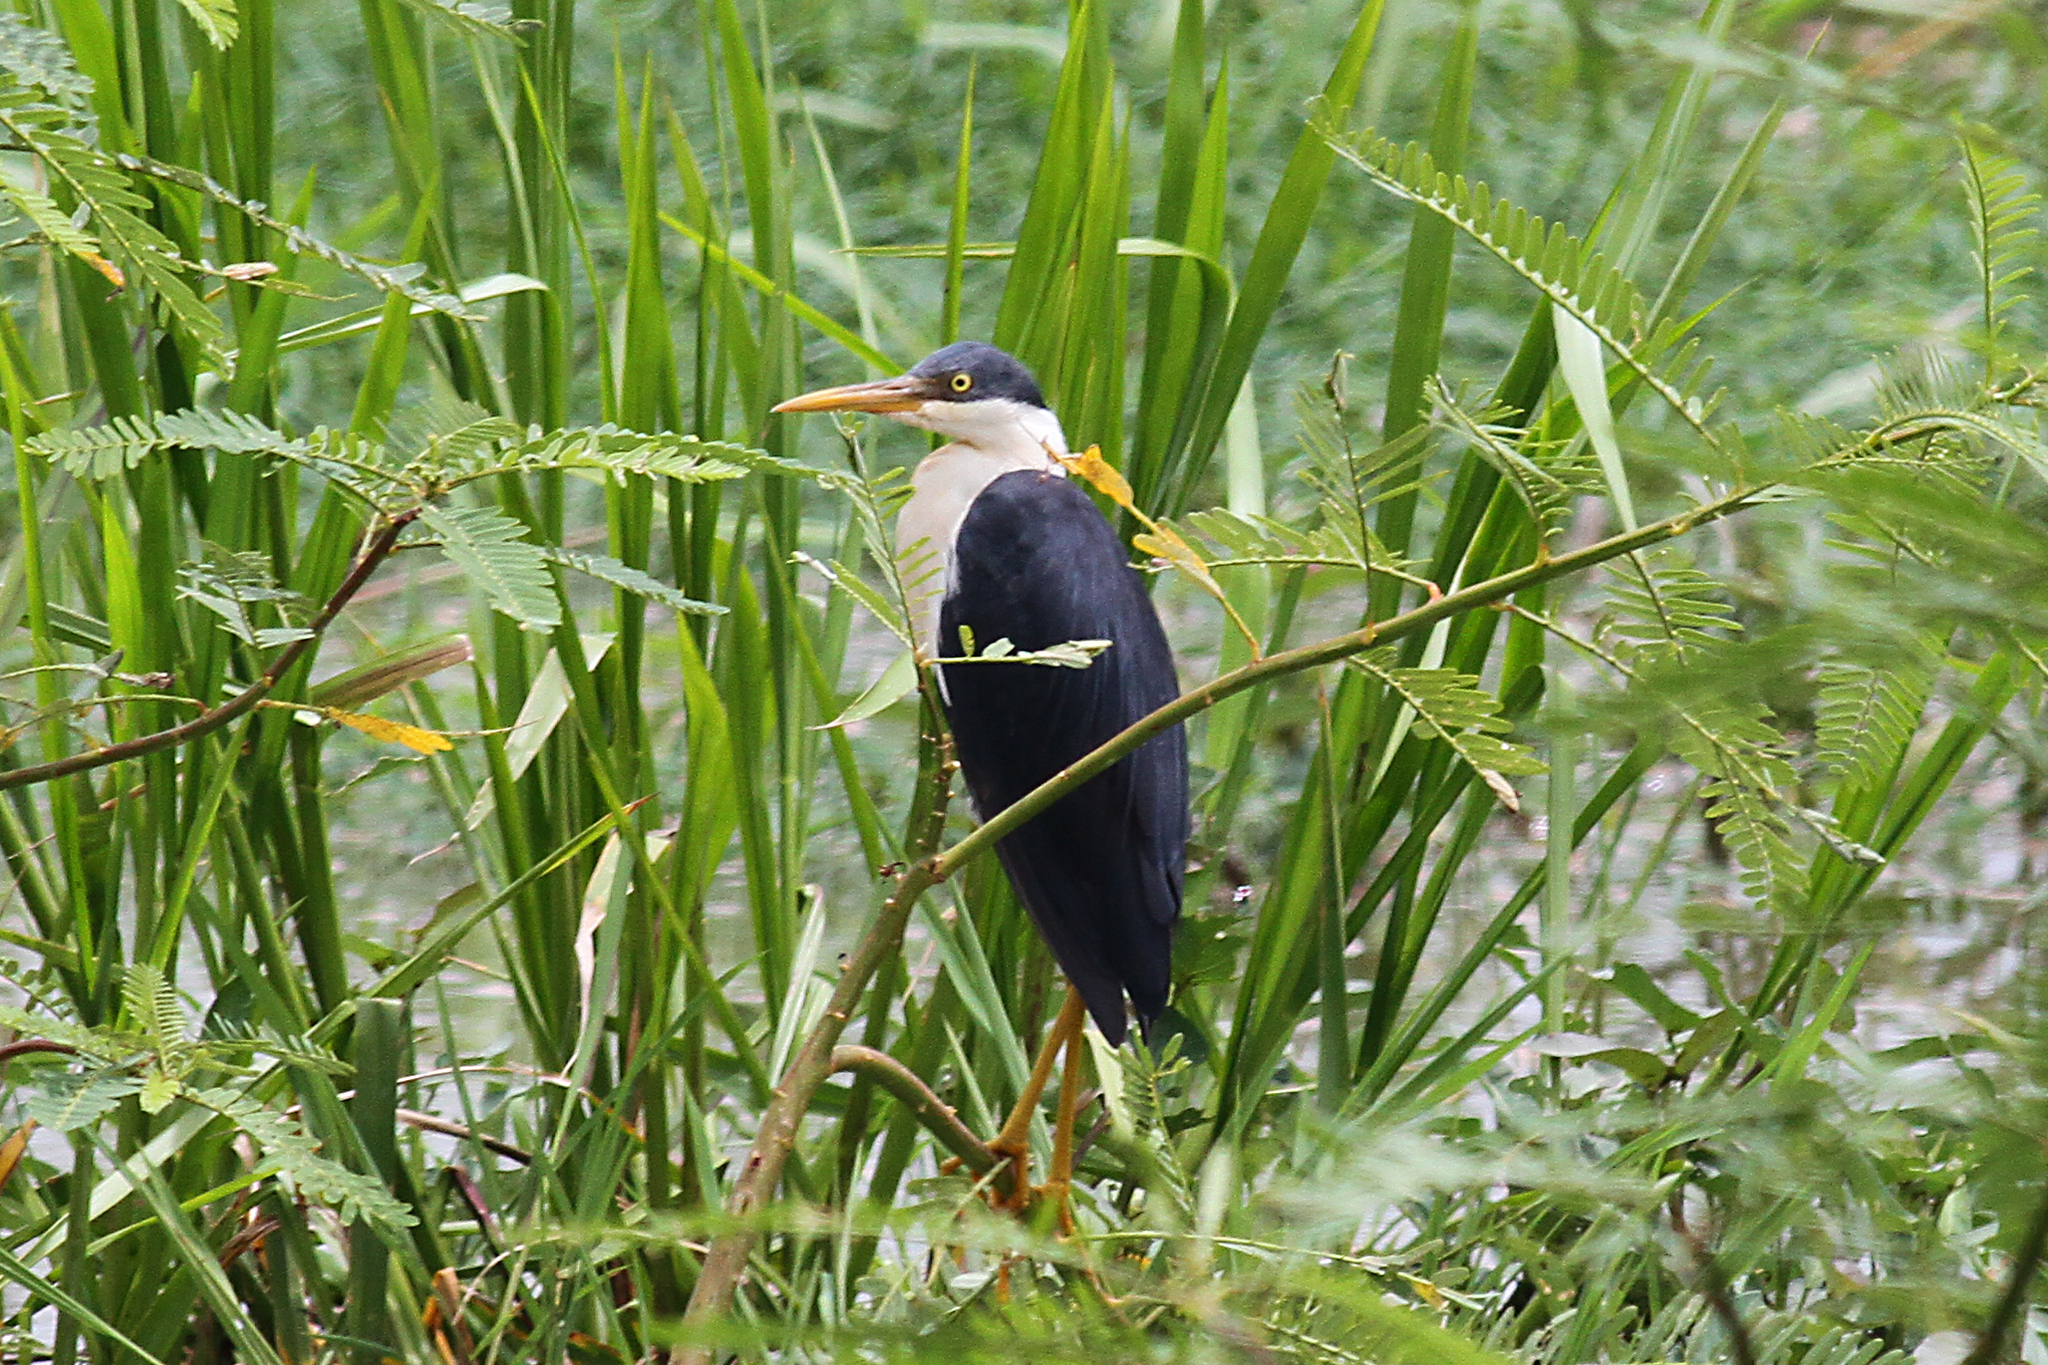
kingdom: Animalia
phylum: Chordata
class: Aves
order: Pelecaniformes
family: Ardeidae
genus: Egretta
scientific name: Egretta picata
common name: Pied heron
